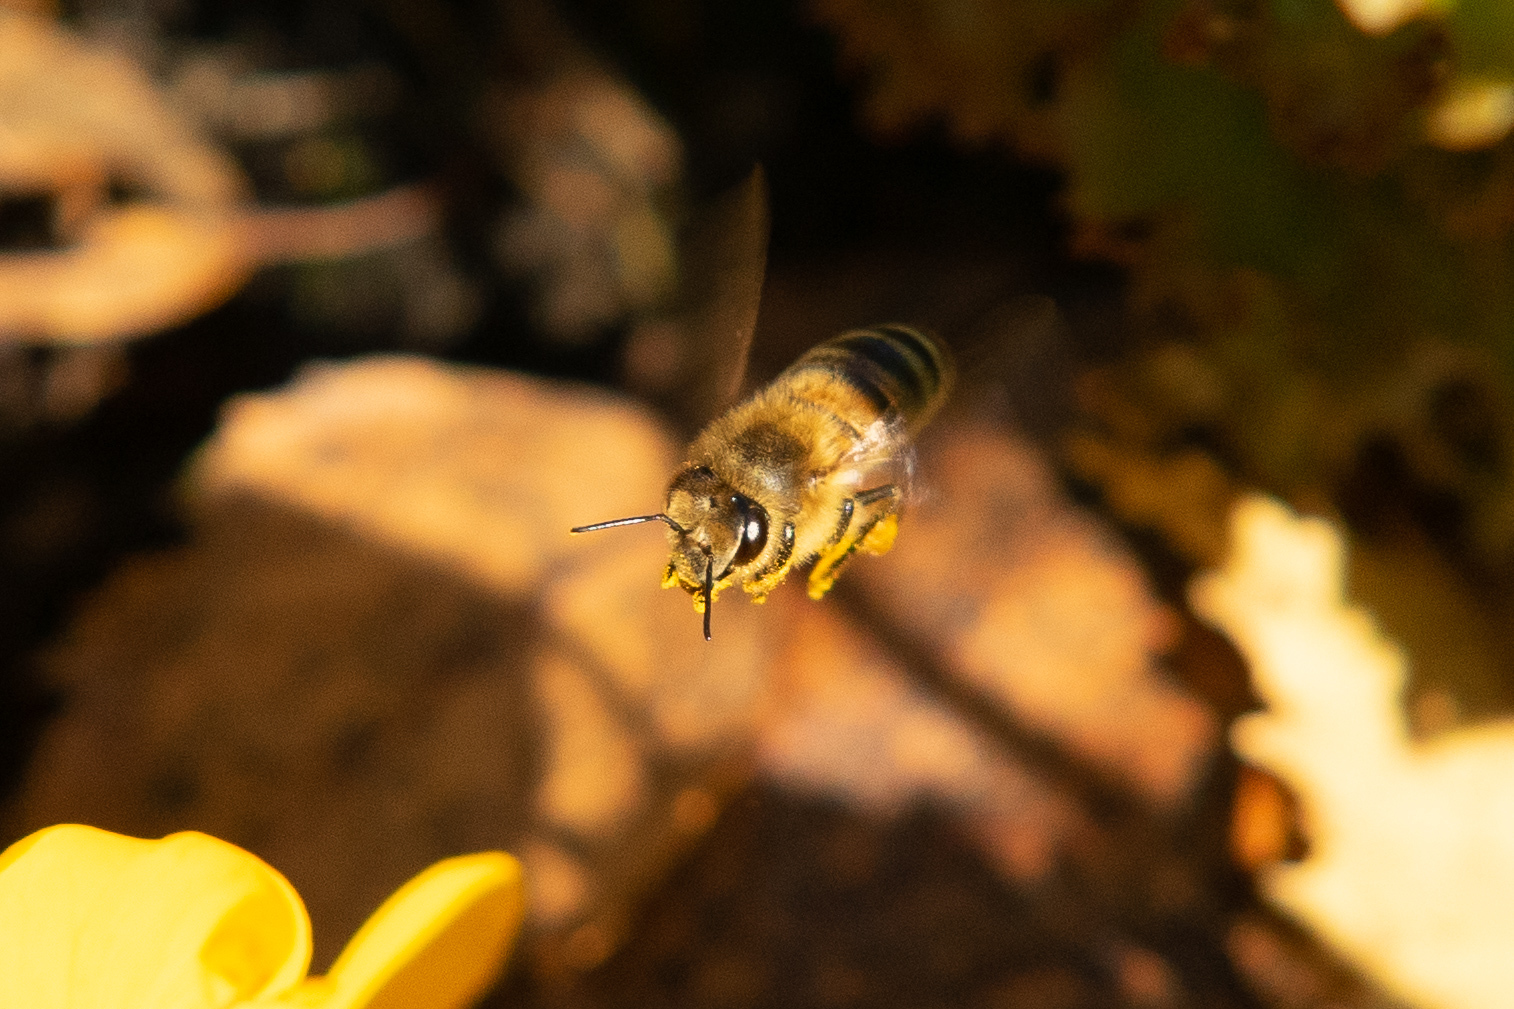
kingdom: Animalia
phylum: Arthropoda
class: Insecta
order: Hymenoptera
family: Apidae
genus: Apis
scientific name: Apis mellifera
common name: Honey bee
